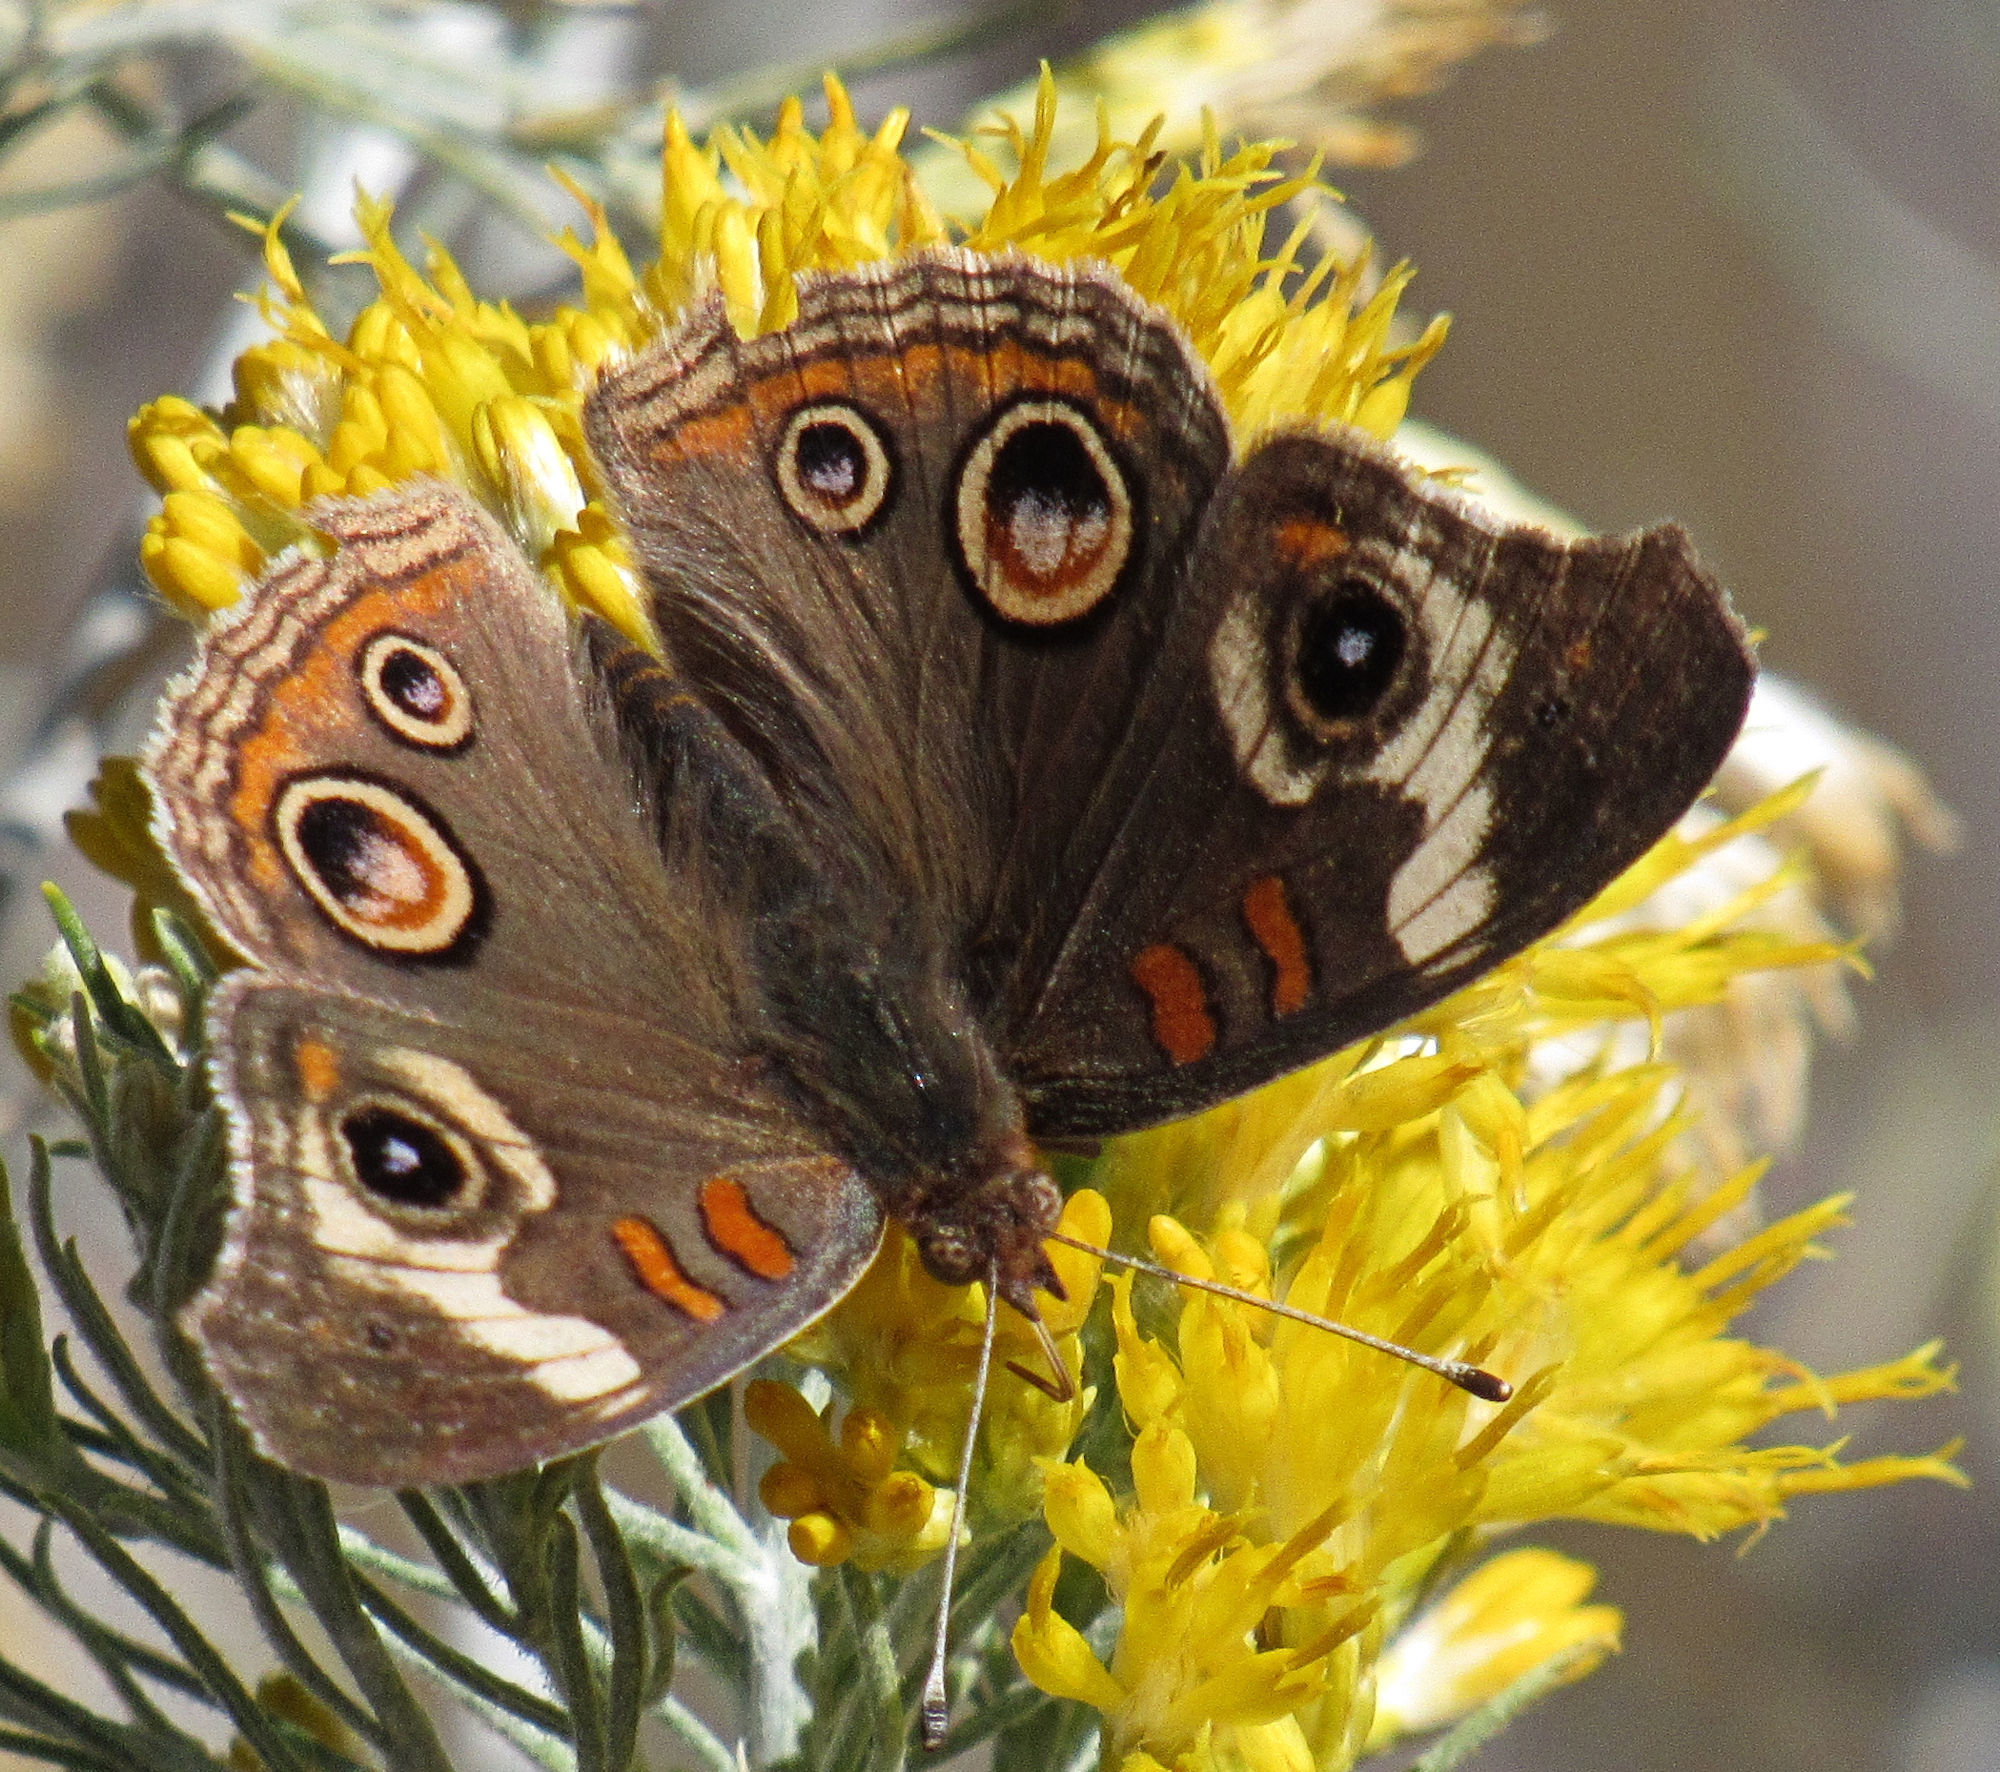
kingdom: Animalia
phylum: Arthropoda
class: Insecta
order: Lepidoptera
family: Nymphalidae
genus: Junonia
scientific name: Junonia grisea
